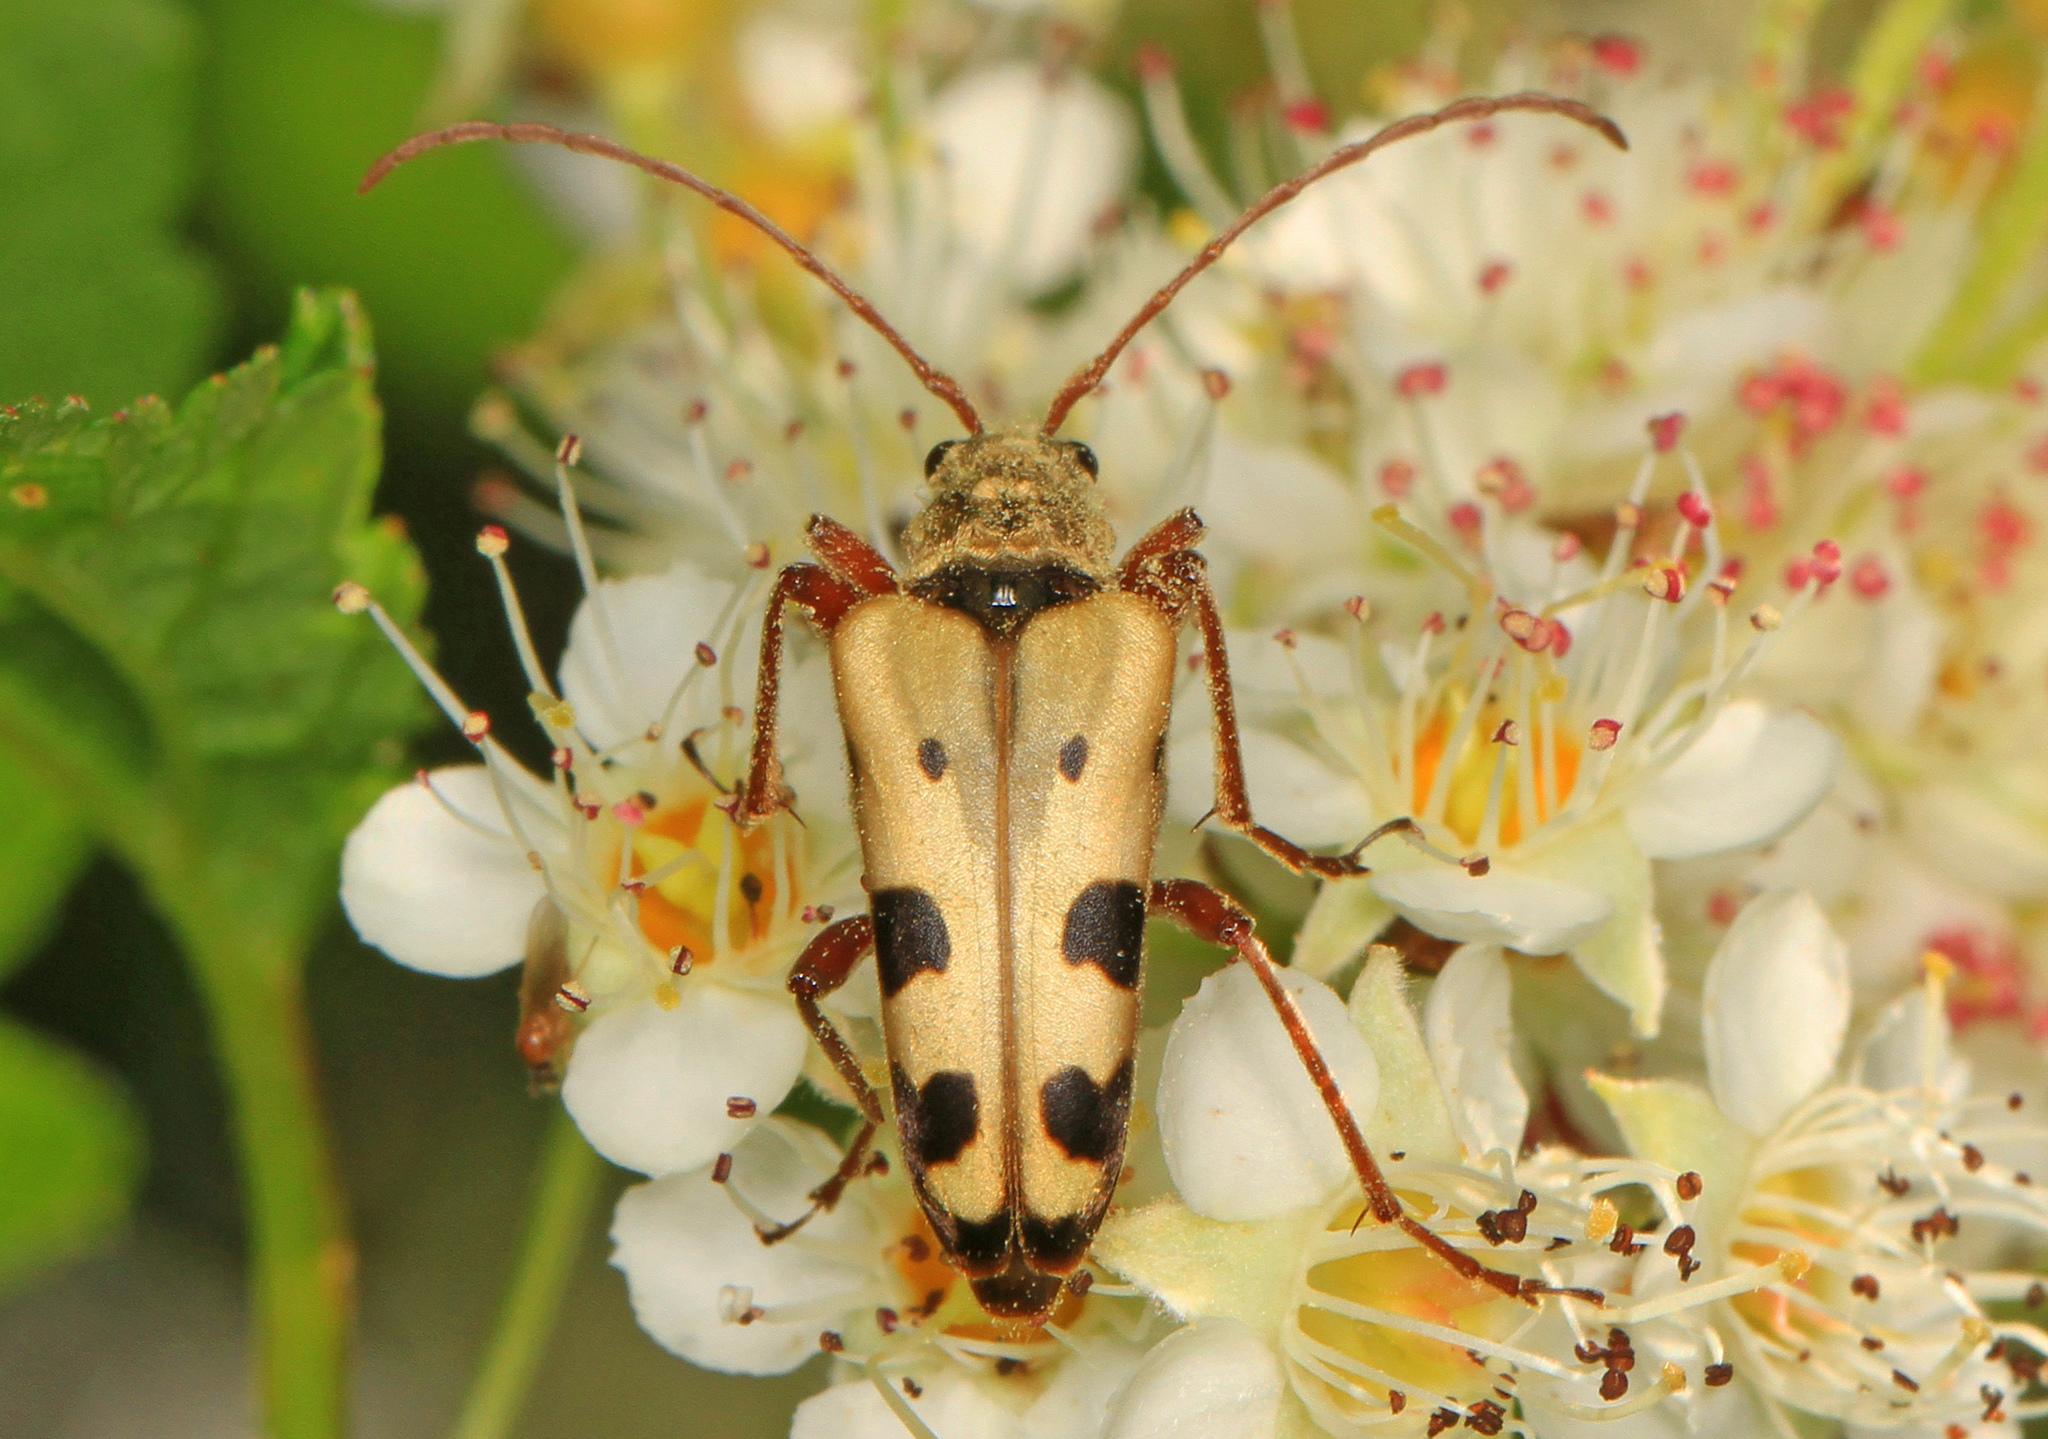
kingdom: Animalia
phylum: Arthropoda
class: Insecta
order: Coleoptera
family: Cerambycidae
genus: Evodinus
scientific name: Evodinus monticola
